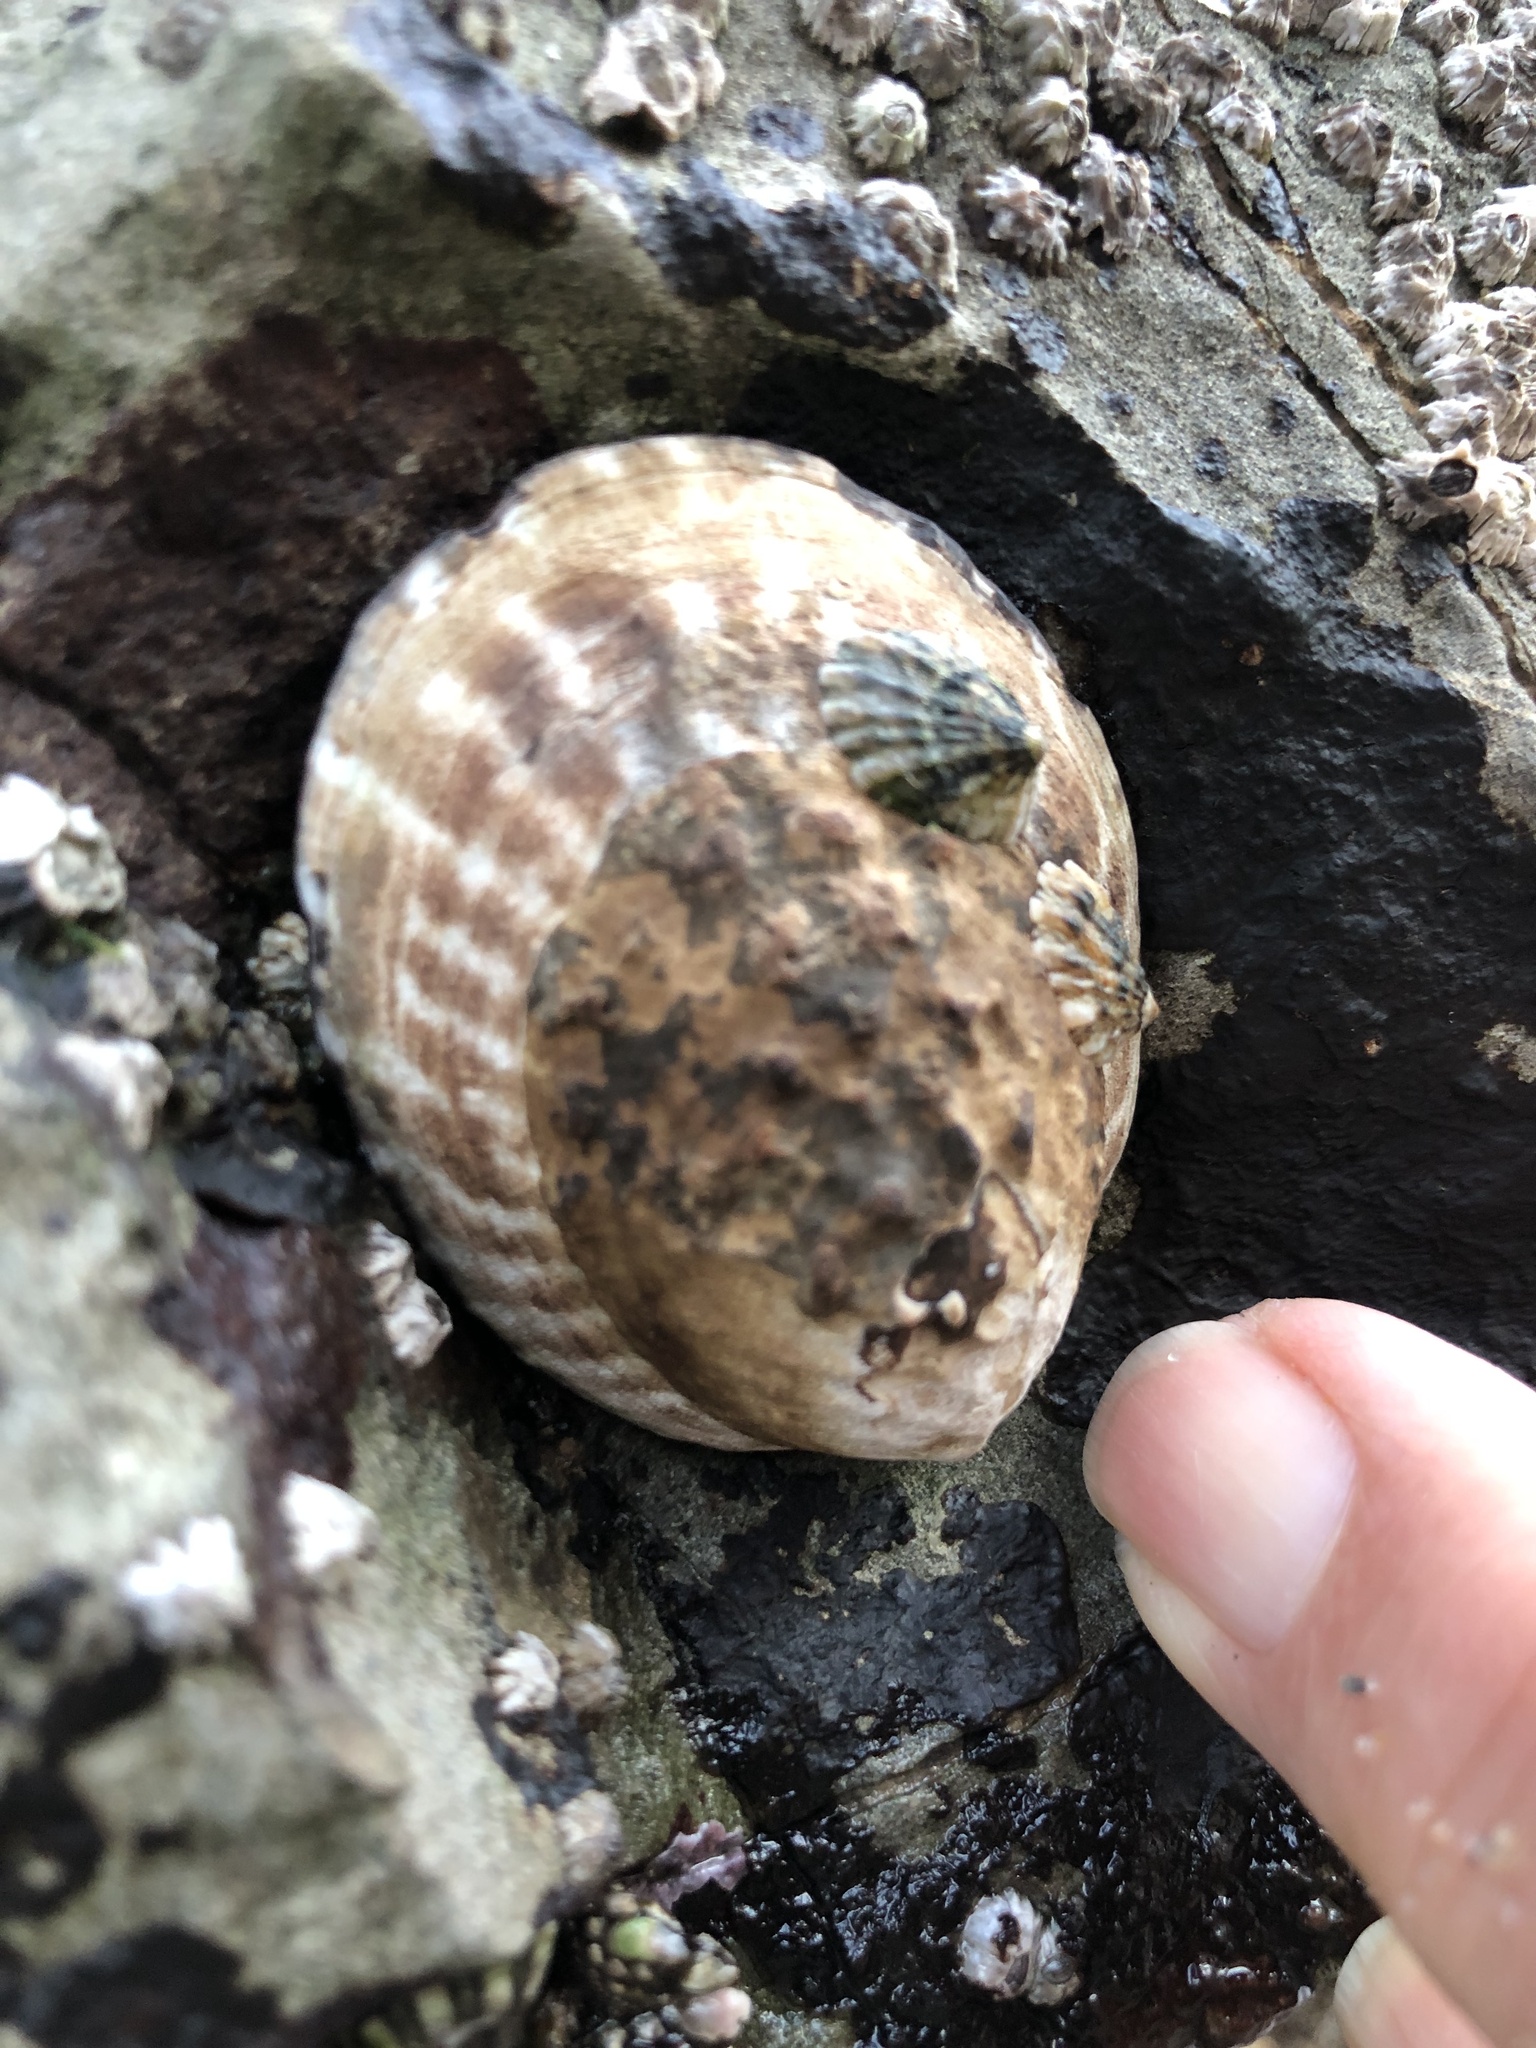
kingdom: Animalia
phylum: Mollusca
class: Gastropoda
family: Lottiidae
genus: Lottia
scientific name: Lottia gigantea
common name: Owl limpet
